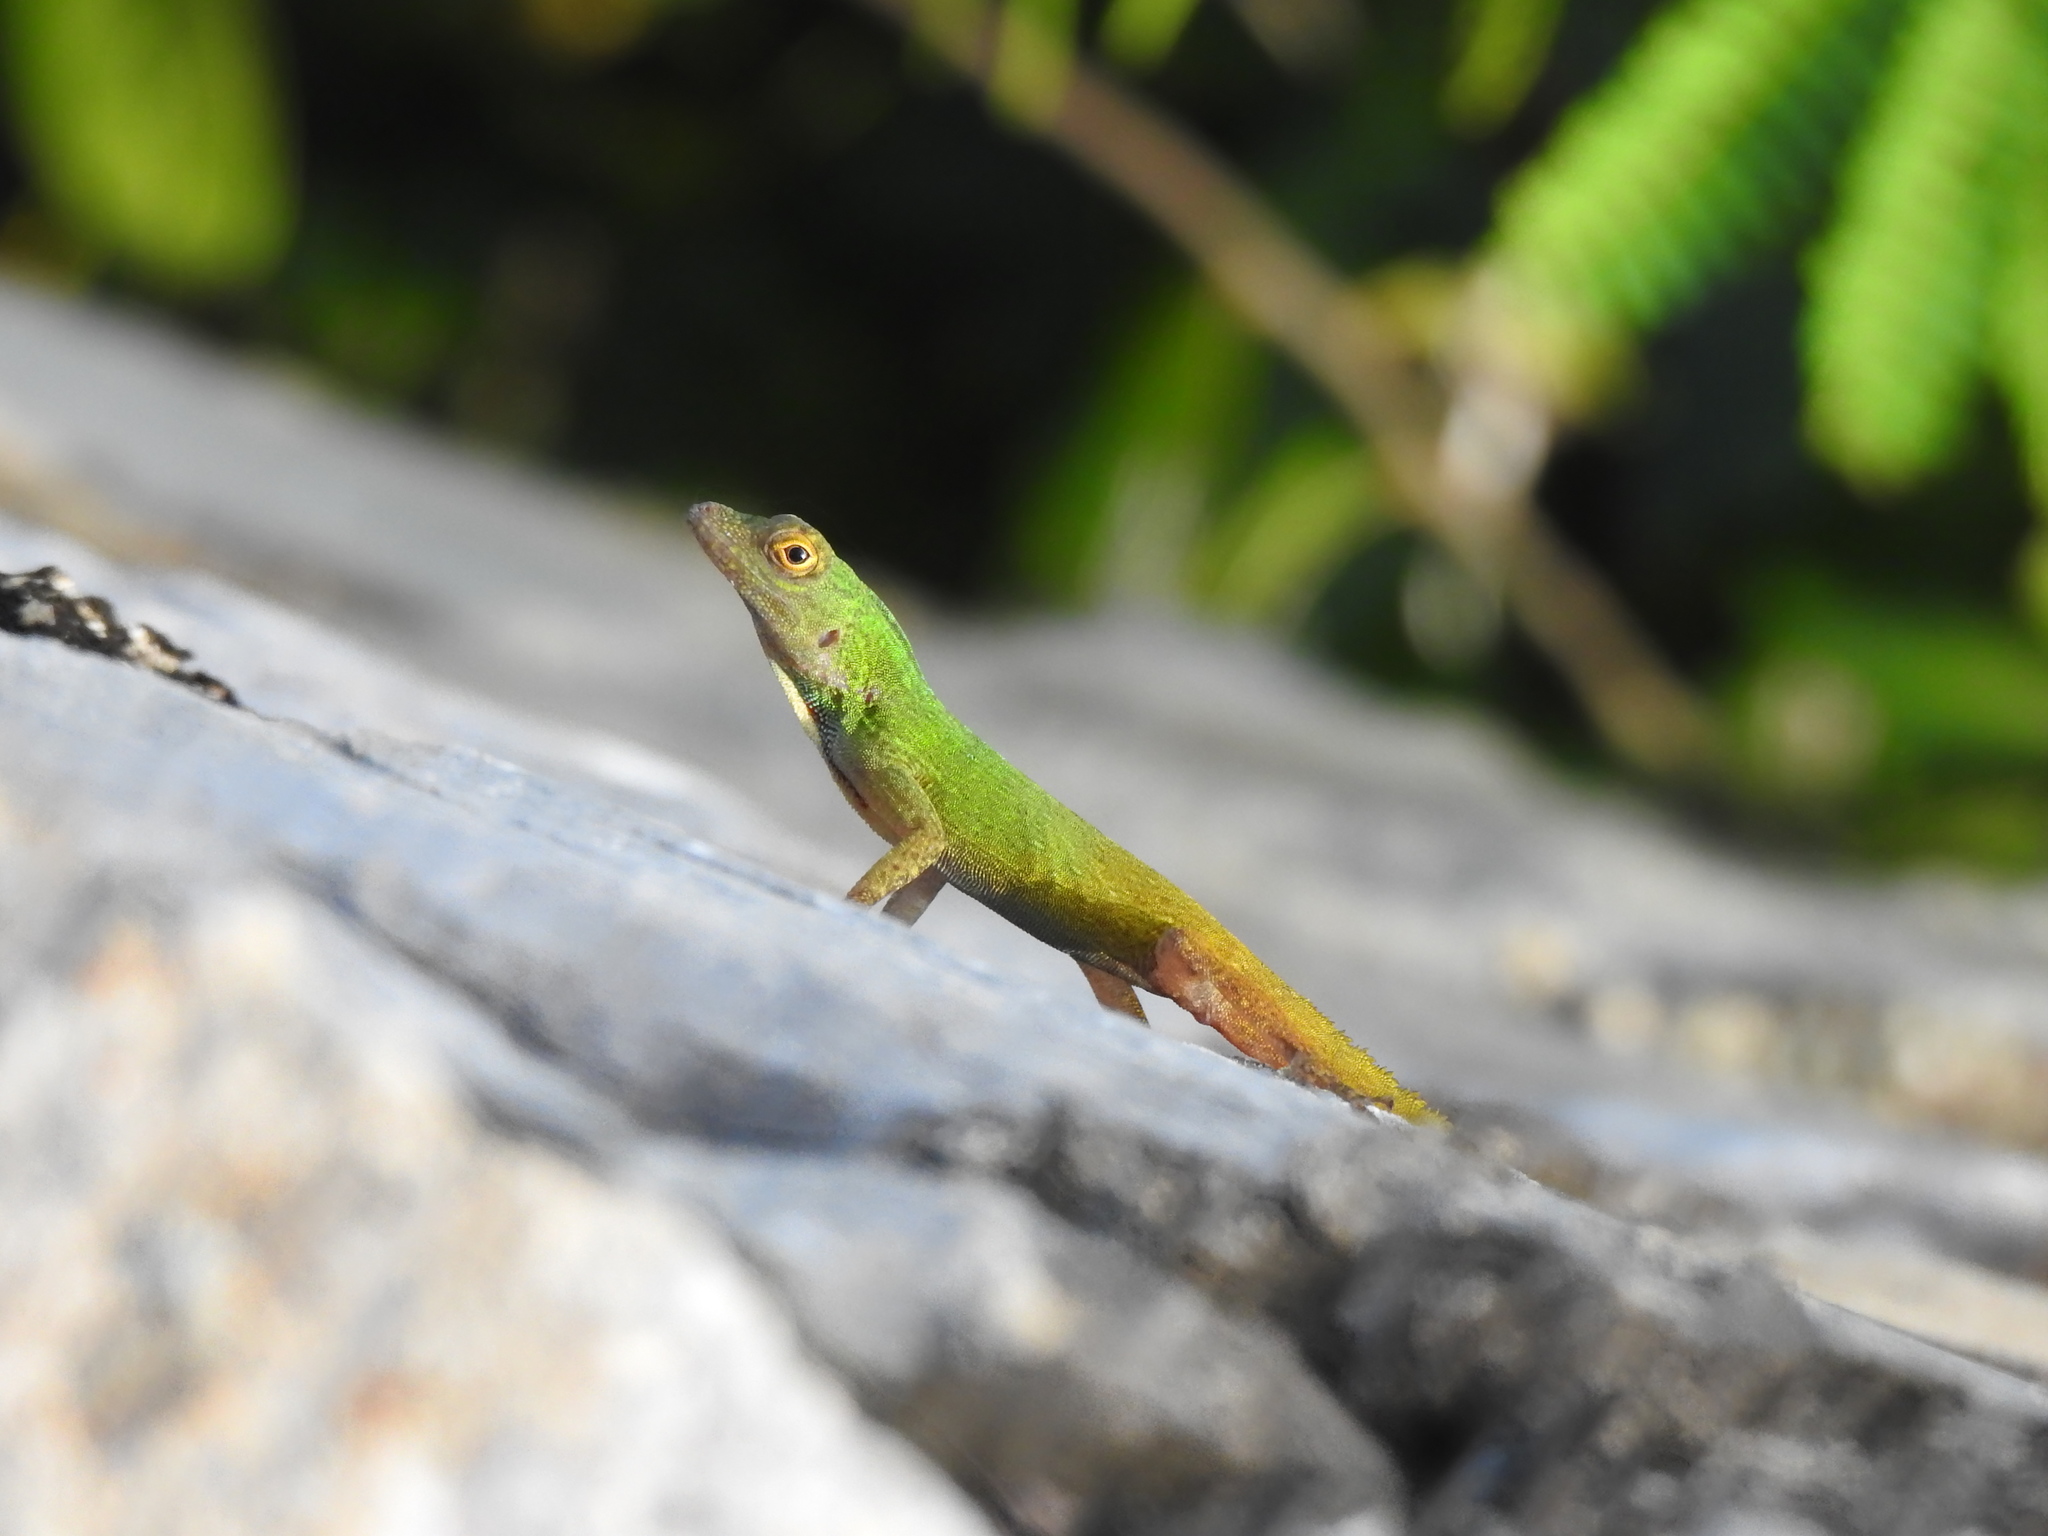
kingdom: Animalia
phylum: Chordata
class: Squamata
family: Dactyloidae
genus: Anolis
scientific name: Anolis distichus
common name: Bark anole
